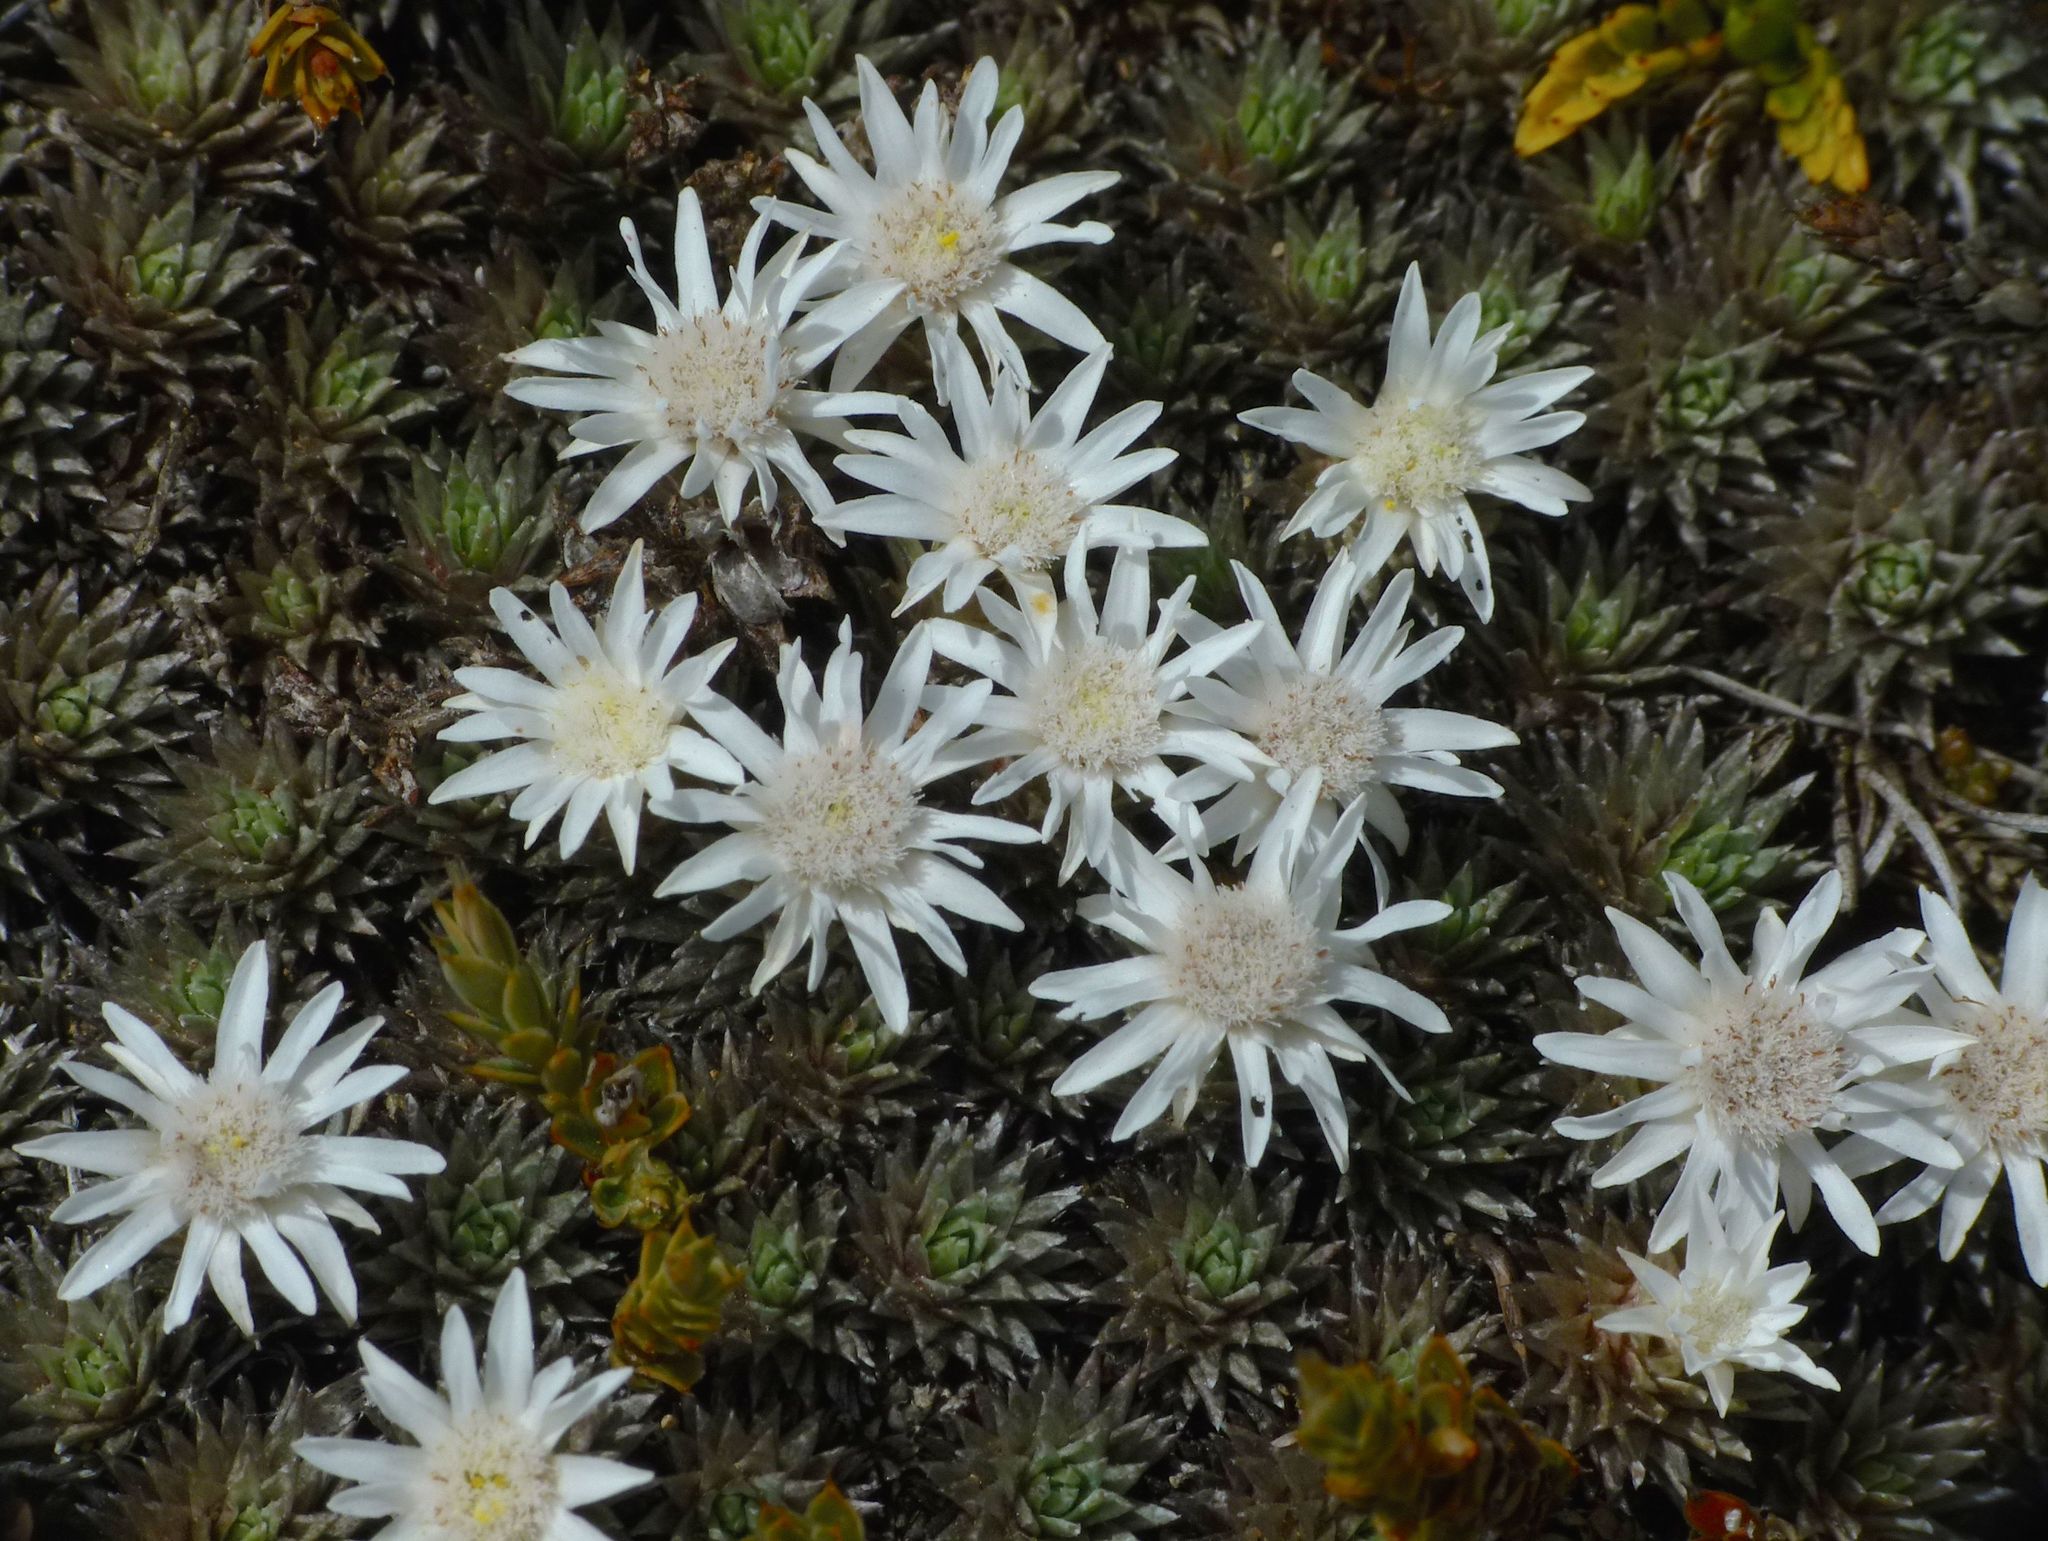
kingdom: Plantae
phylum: Tracheophyta
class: Magnoliopsida
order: Asterales
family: Asteraceae
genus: Raoulia
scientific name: Raoulia grandiflora
